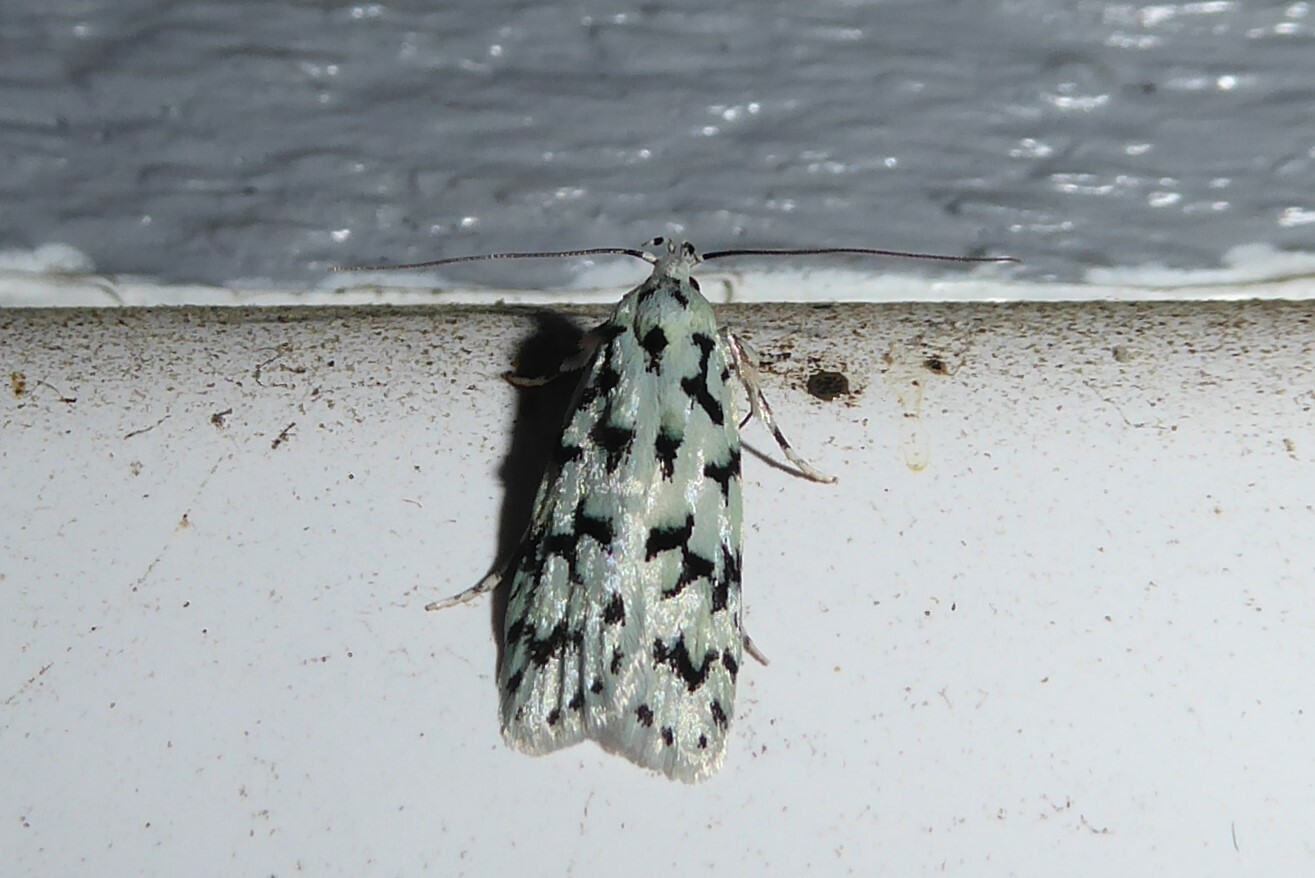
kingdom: Animalia
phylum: Arthropoda
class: Insecta
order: Lepidoptera
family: Oecophoridae
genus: Izatha
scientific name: Izatha huttoni
